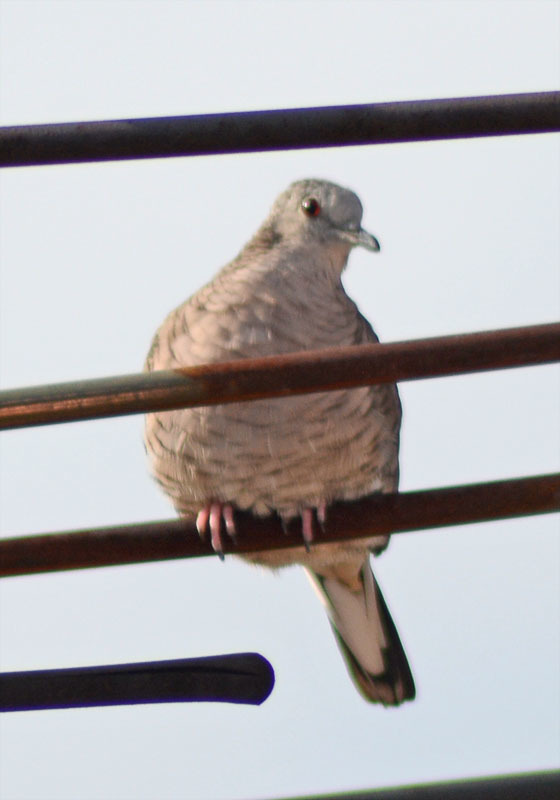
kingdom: Animalia
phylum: Chordata
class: Aves
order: Columbiformes
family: Columbidae
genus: Columbina
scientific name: Columbina inca
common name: Inca dove
